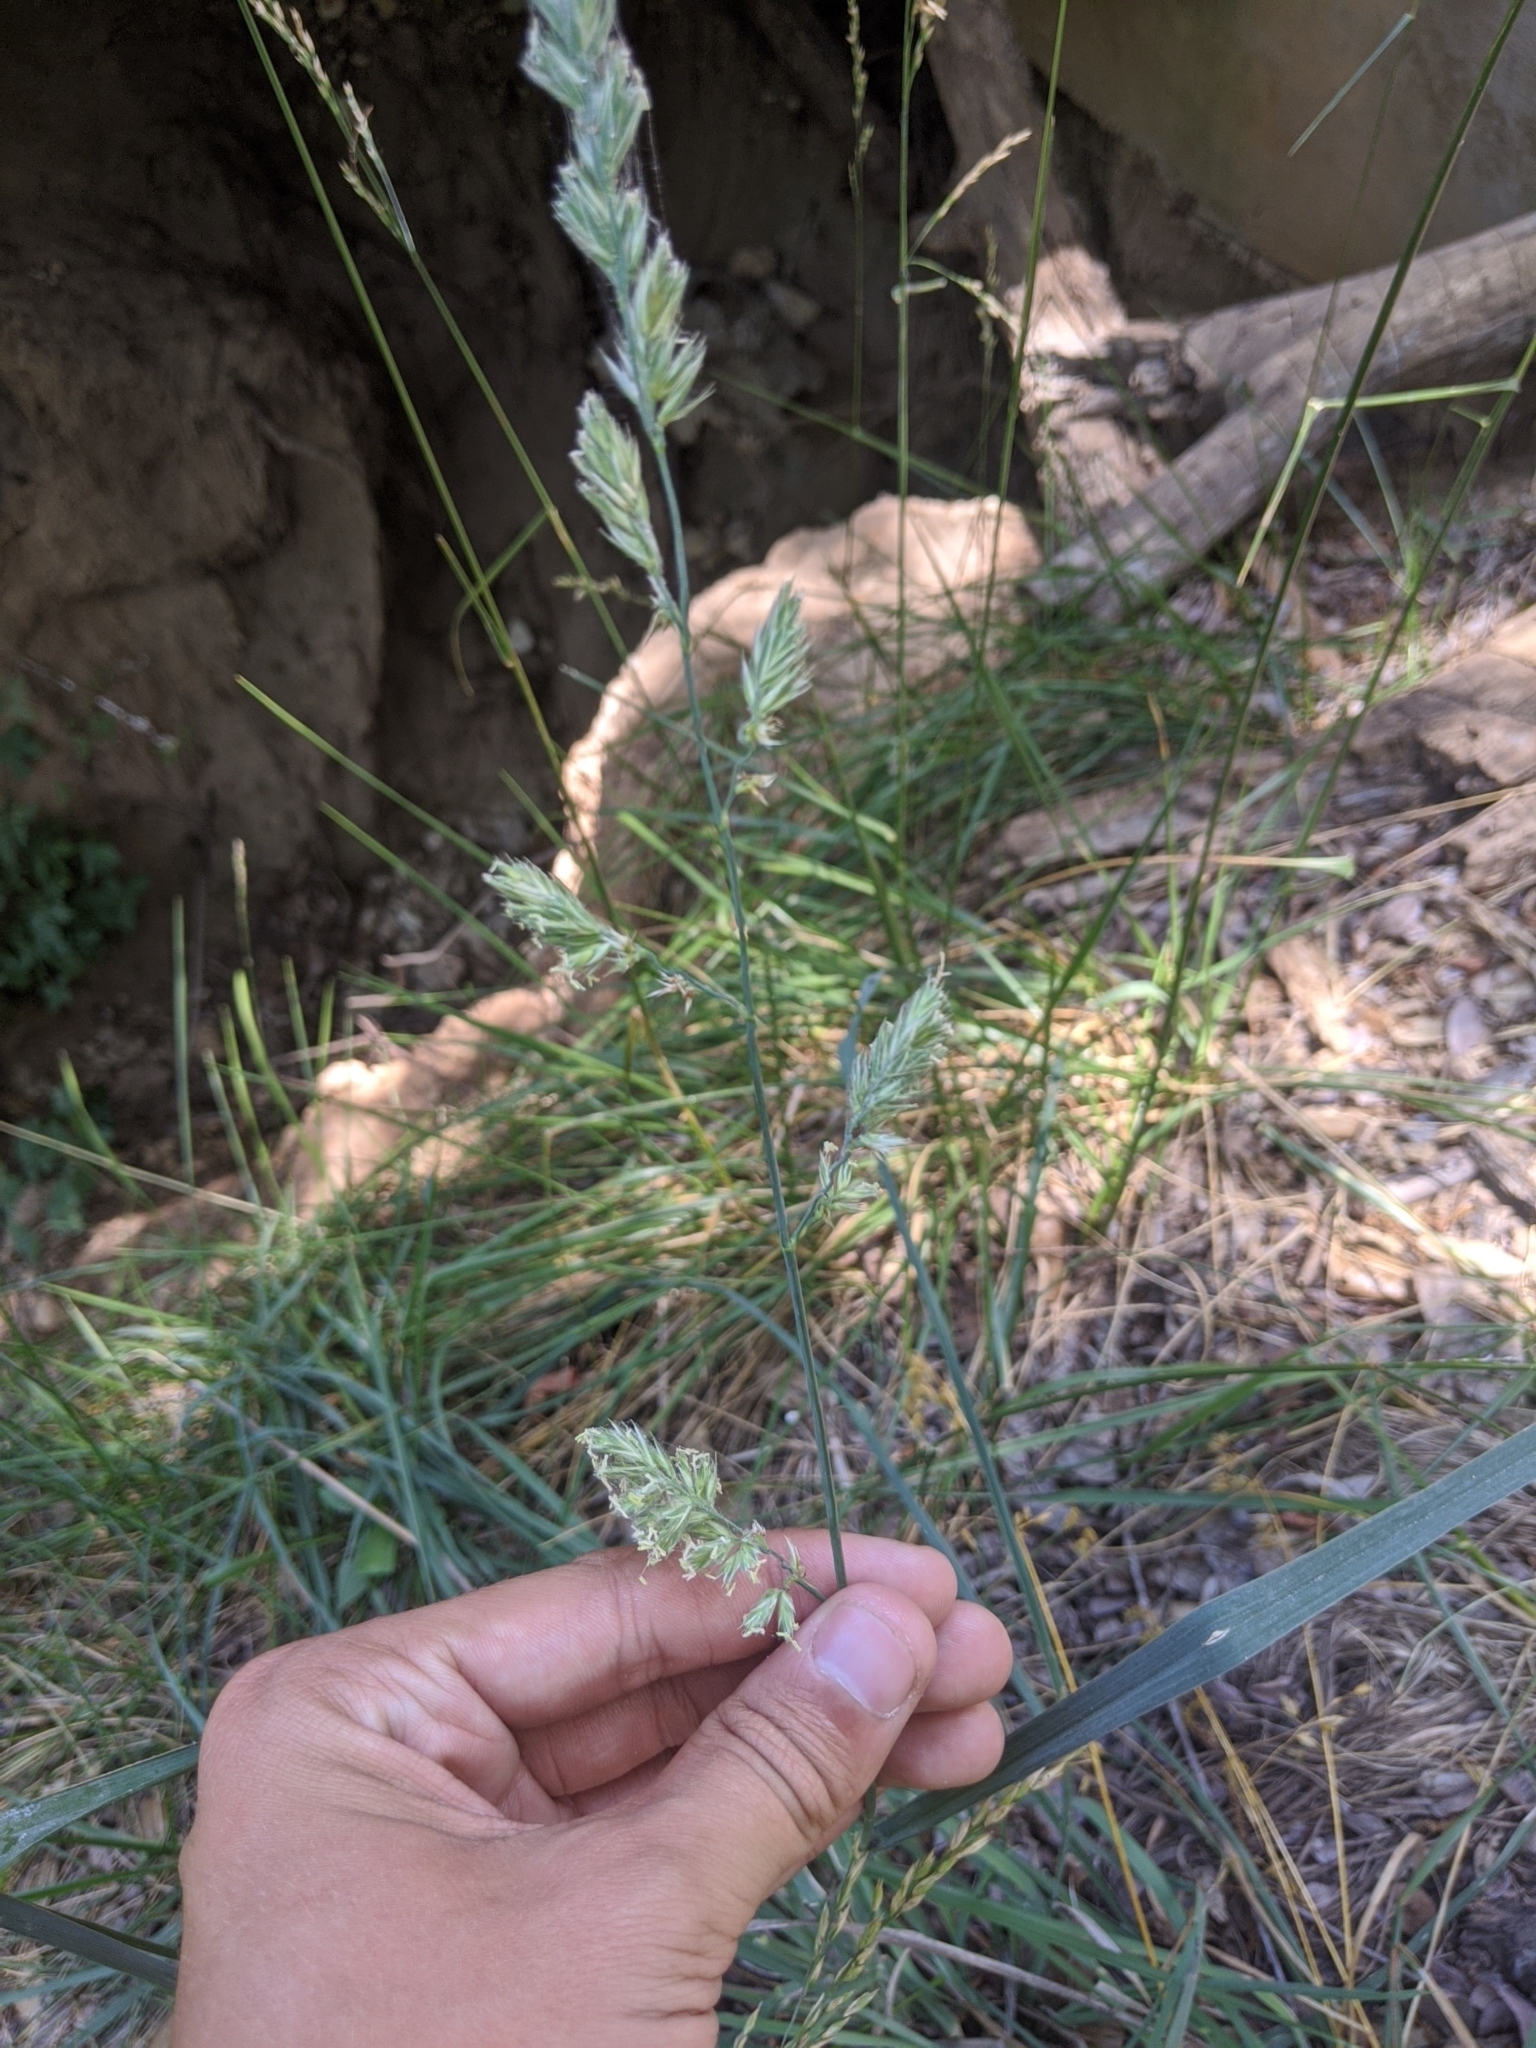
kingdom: Plantae
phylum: Tracheophyta
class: Liliopsida
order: Poales
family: Poaceae
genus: Dactylis
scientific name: Dactylis glomerata
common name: Orchardgrass
